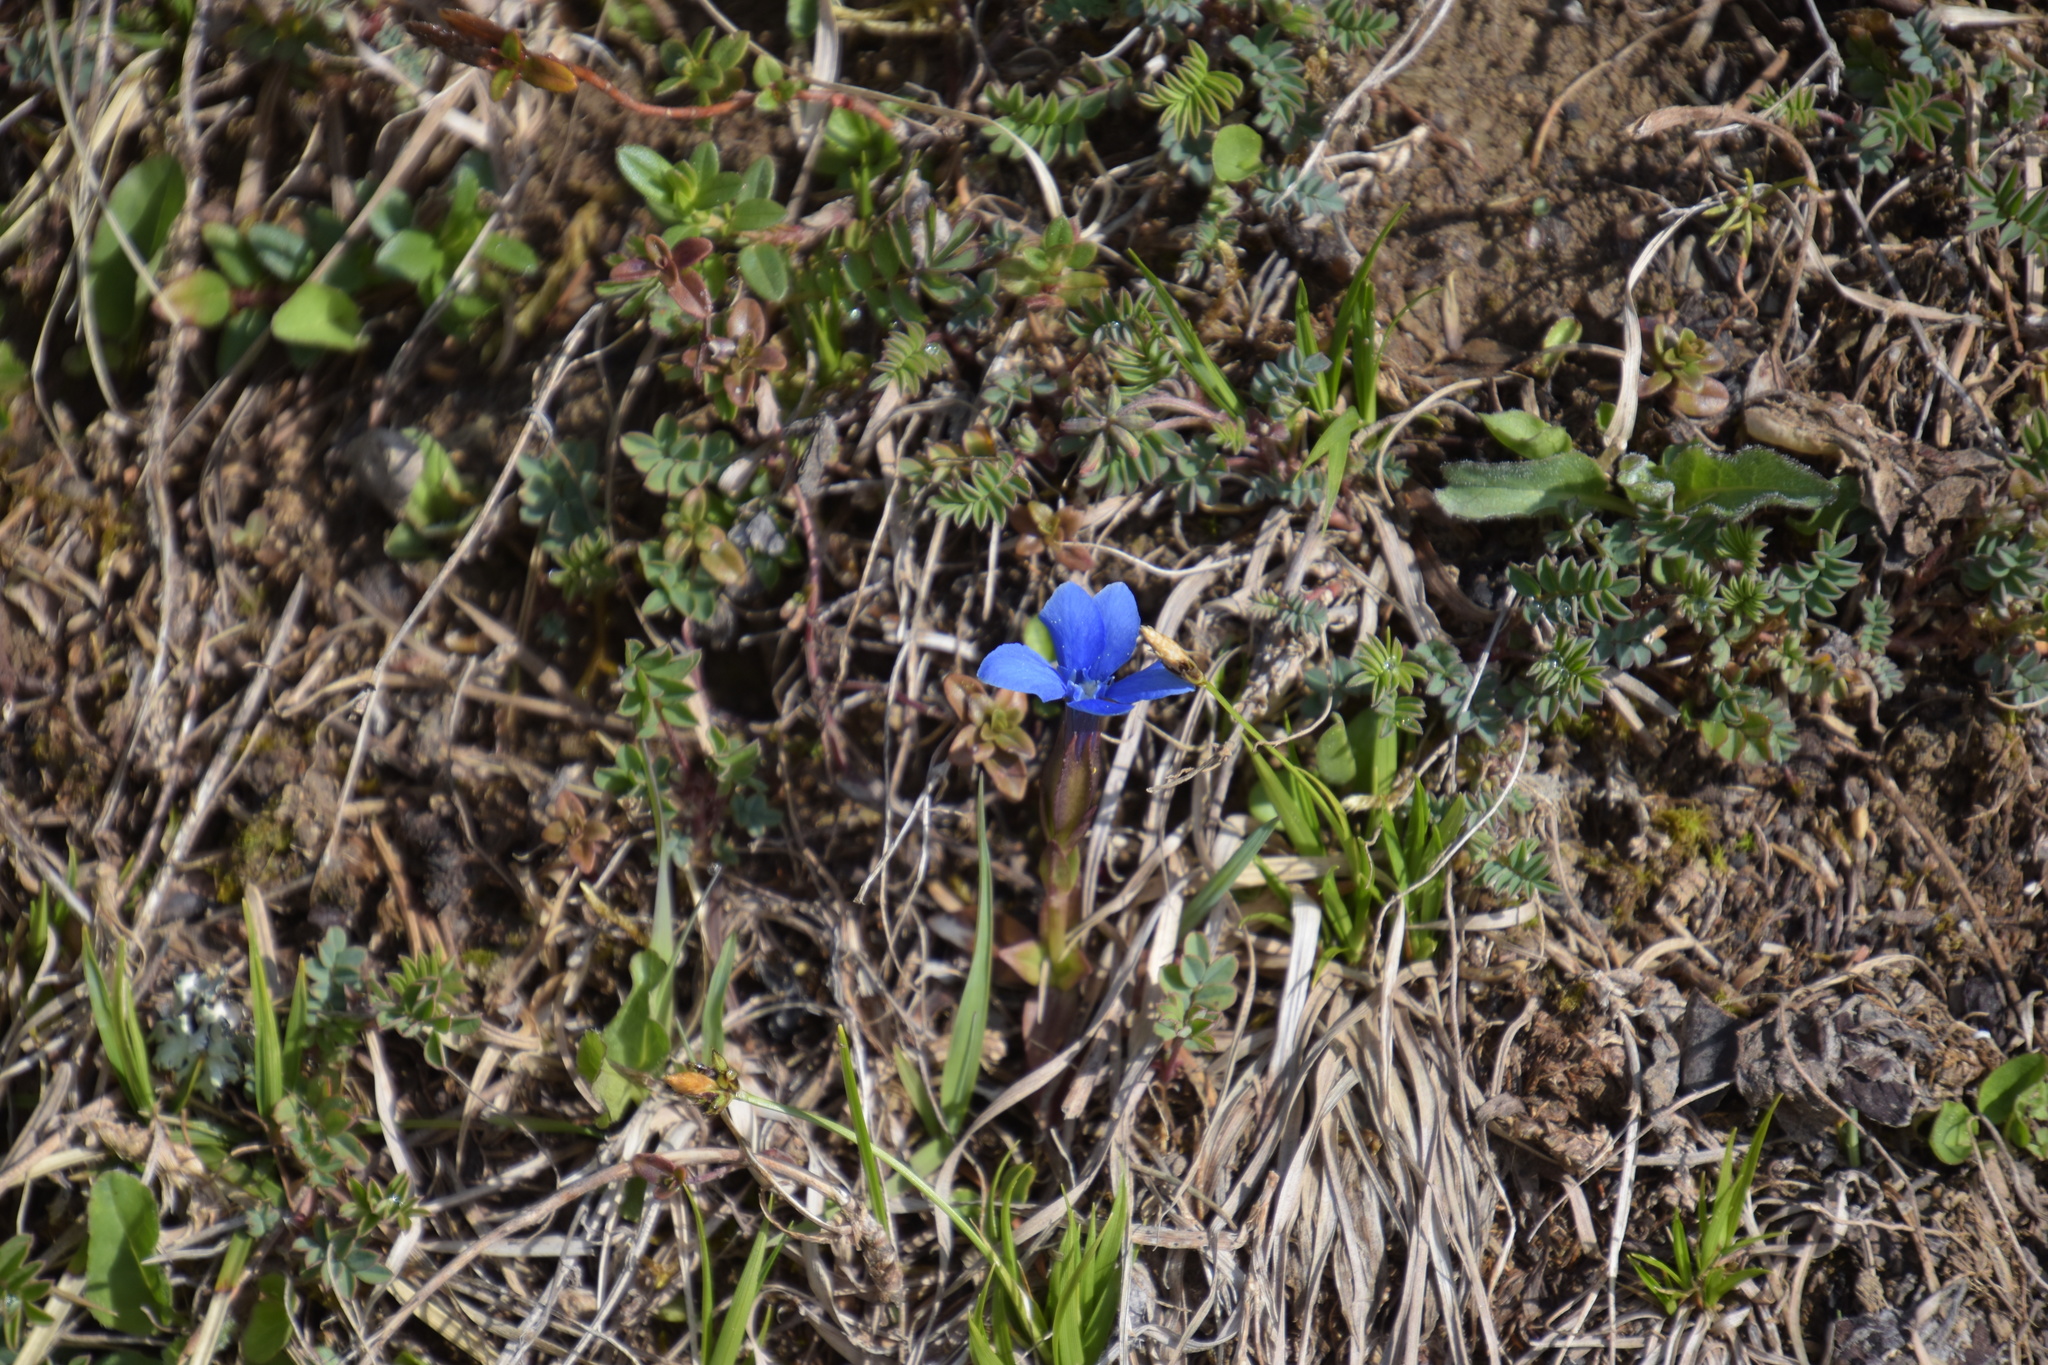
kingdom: Plantae
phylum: Tracheophyta
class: Magnoliopsida
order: Gentianales
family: Gentianaceae
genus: Gentiana
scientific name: Gentiana verna
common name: Spring gentian
